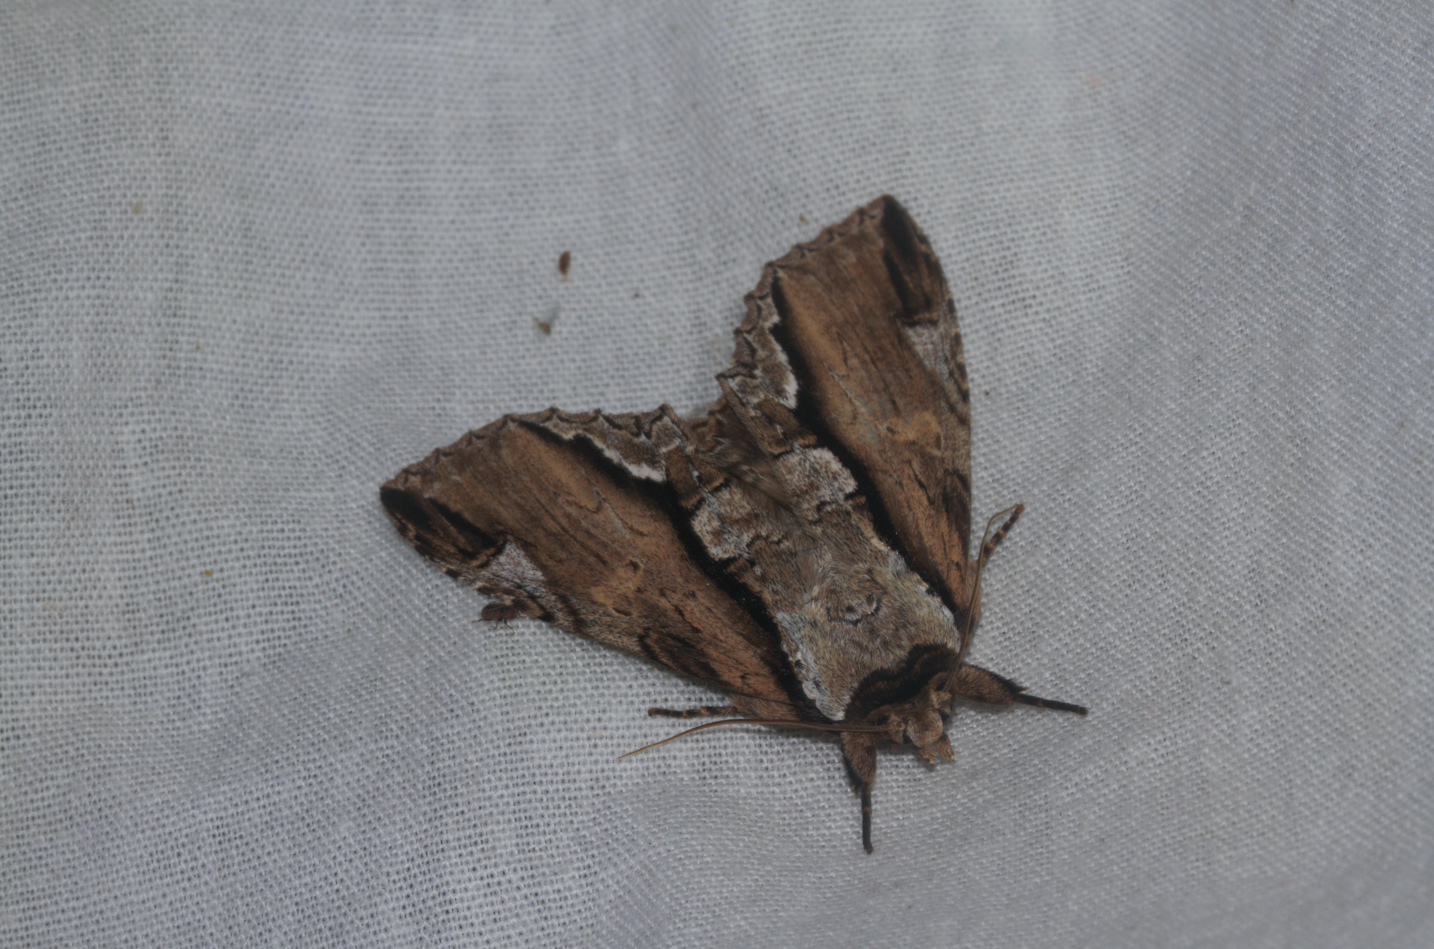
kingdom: Animalia
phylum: Arthropoda
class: Insecta
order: Lepidoptera
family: Notodontidae
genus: Rhudara
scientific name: Rhudara coralia
